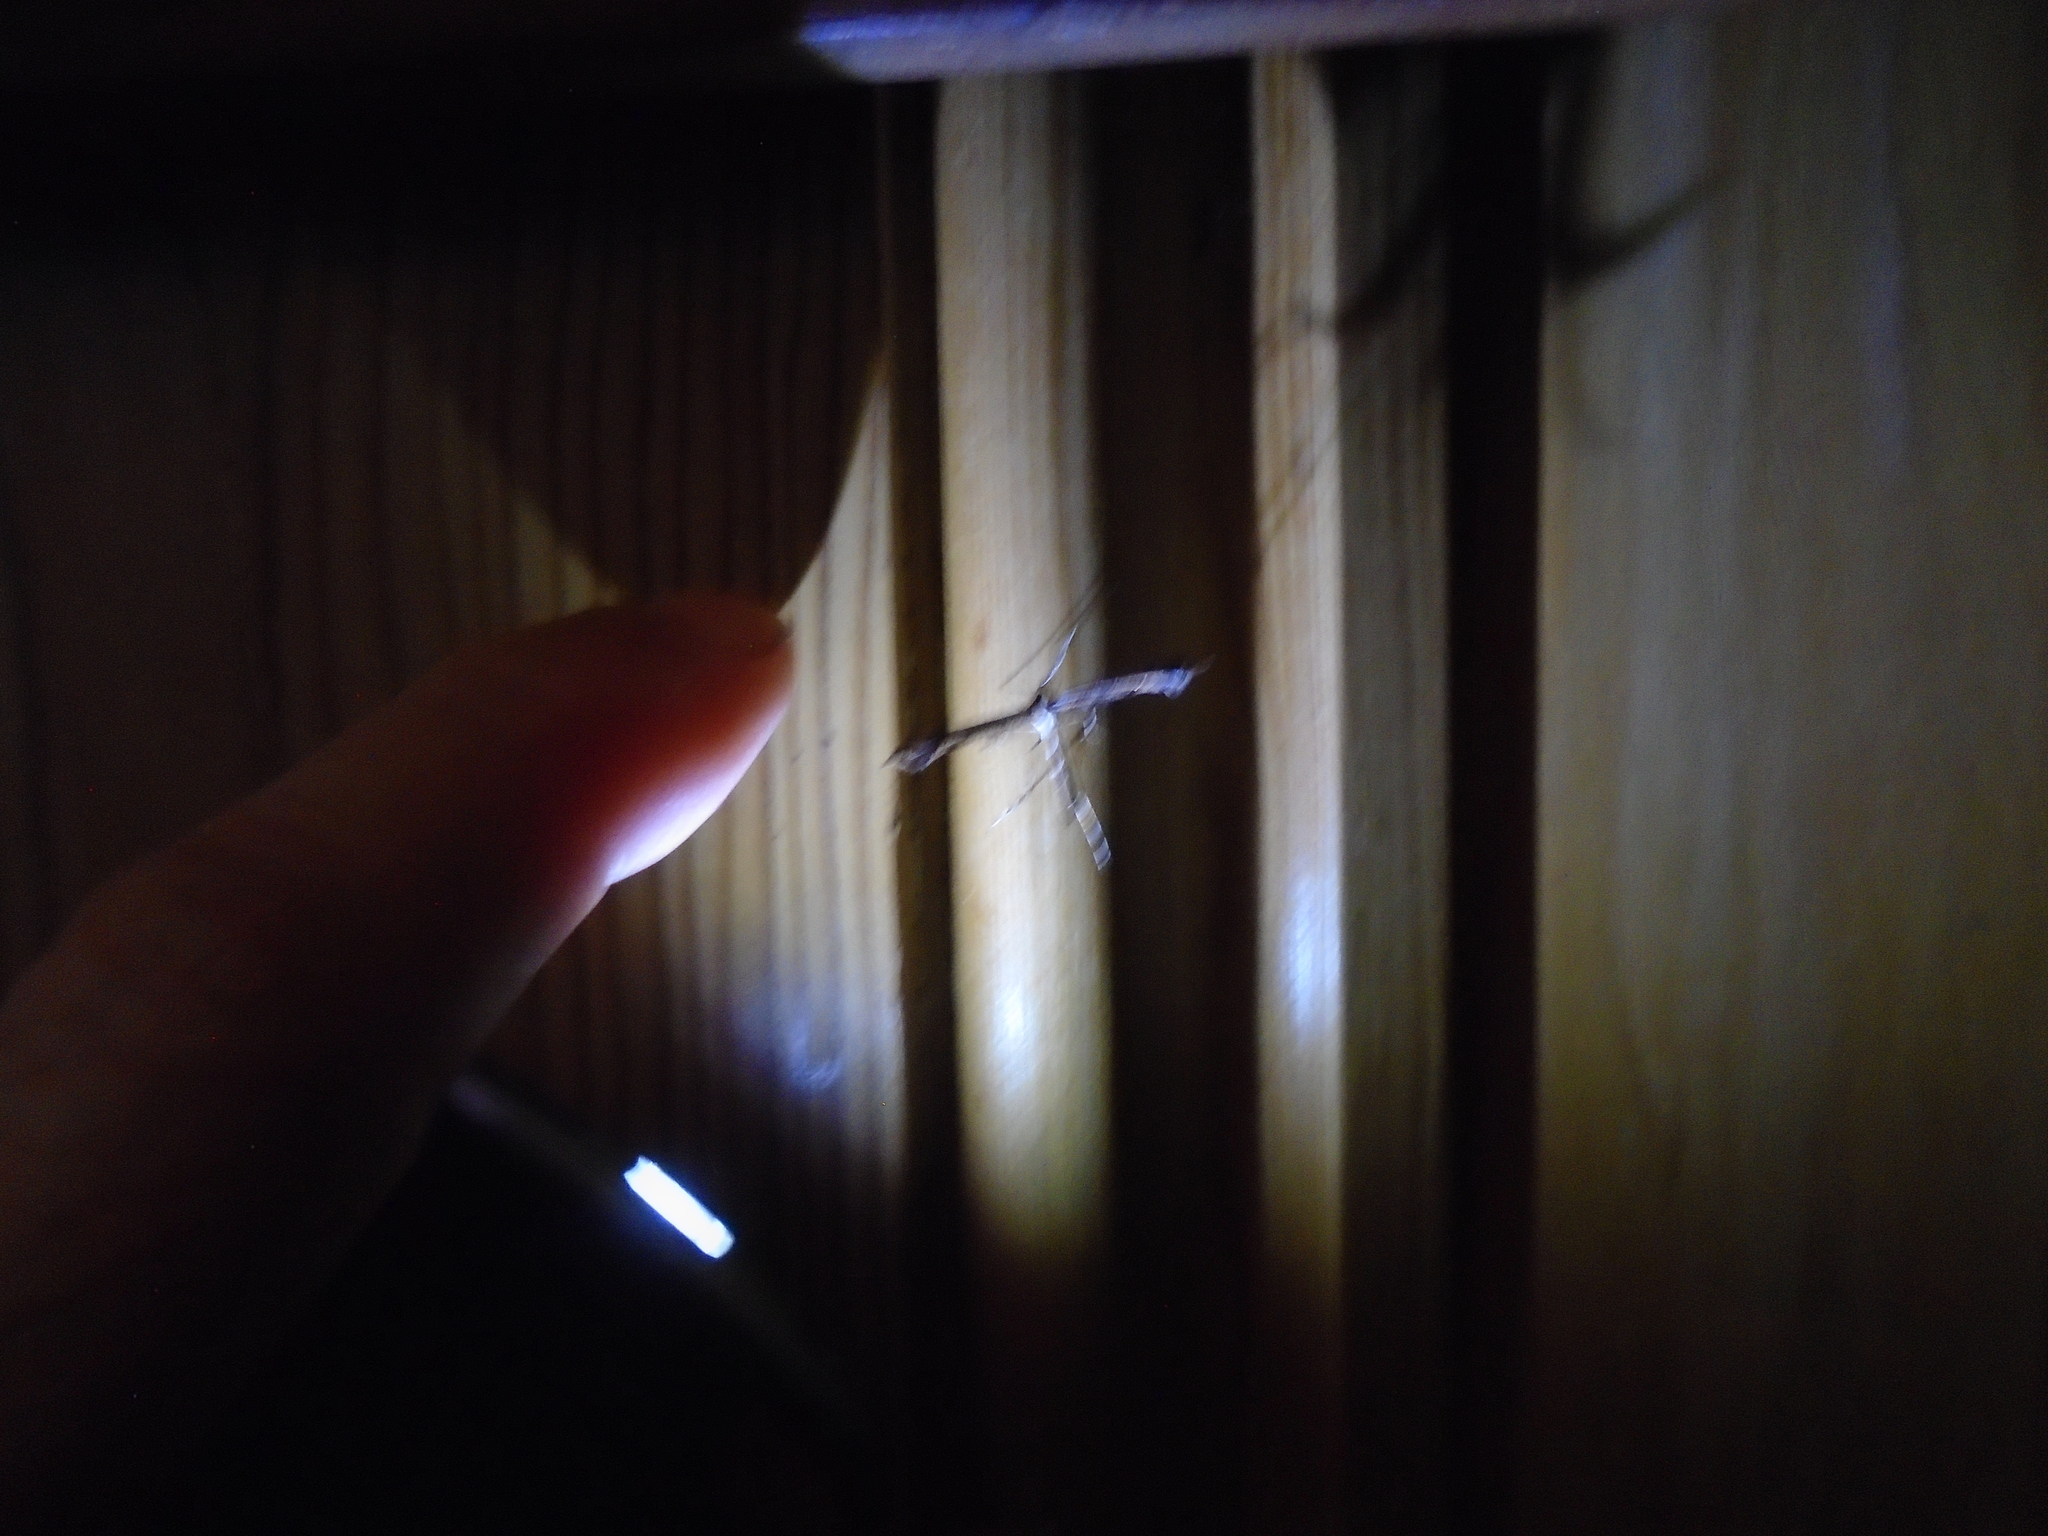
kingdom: Animalia
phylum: Arthropoda
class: Insecta
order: Lepidoptera
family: Pterophoridae
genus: Amblyptilia
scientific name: Amblyptilia acanthadactyla
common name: Beautiful plume
